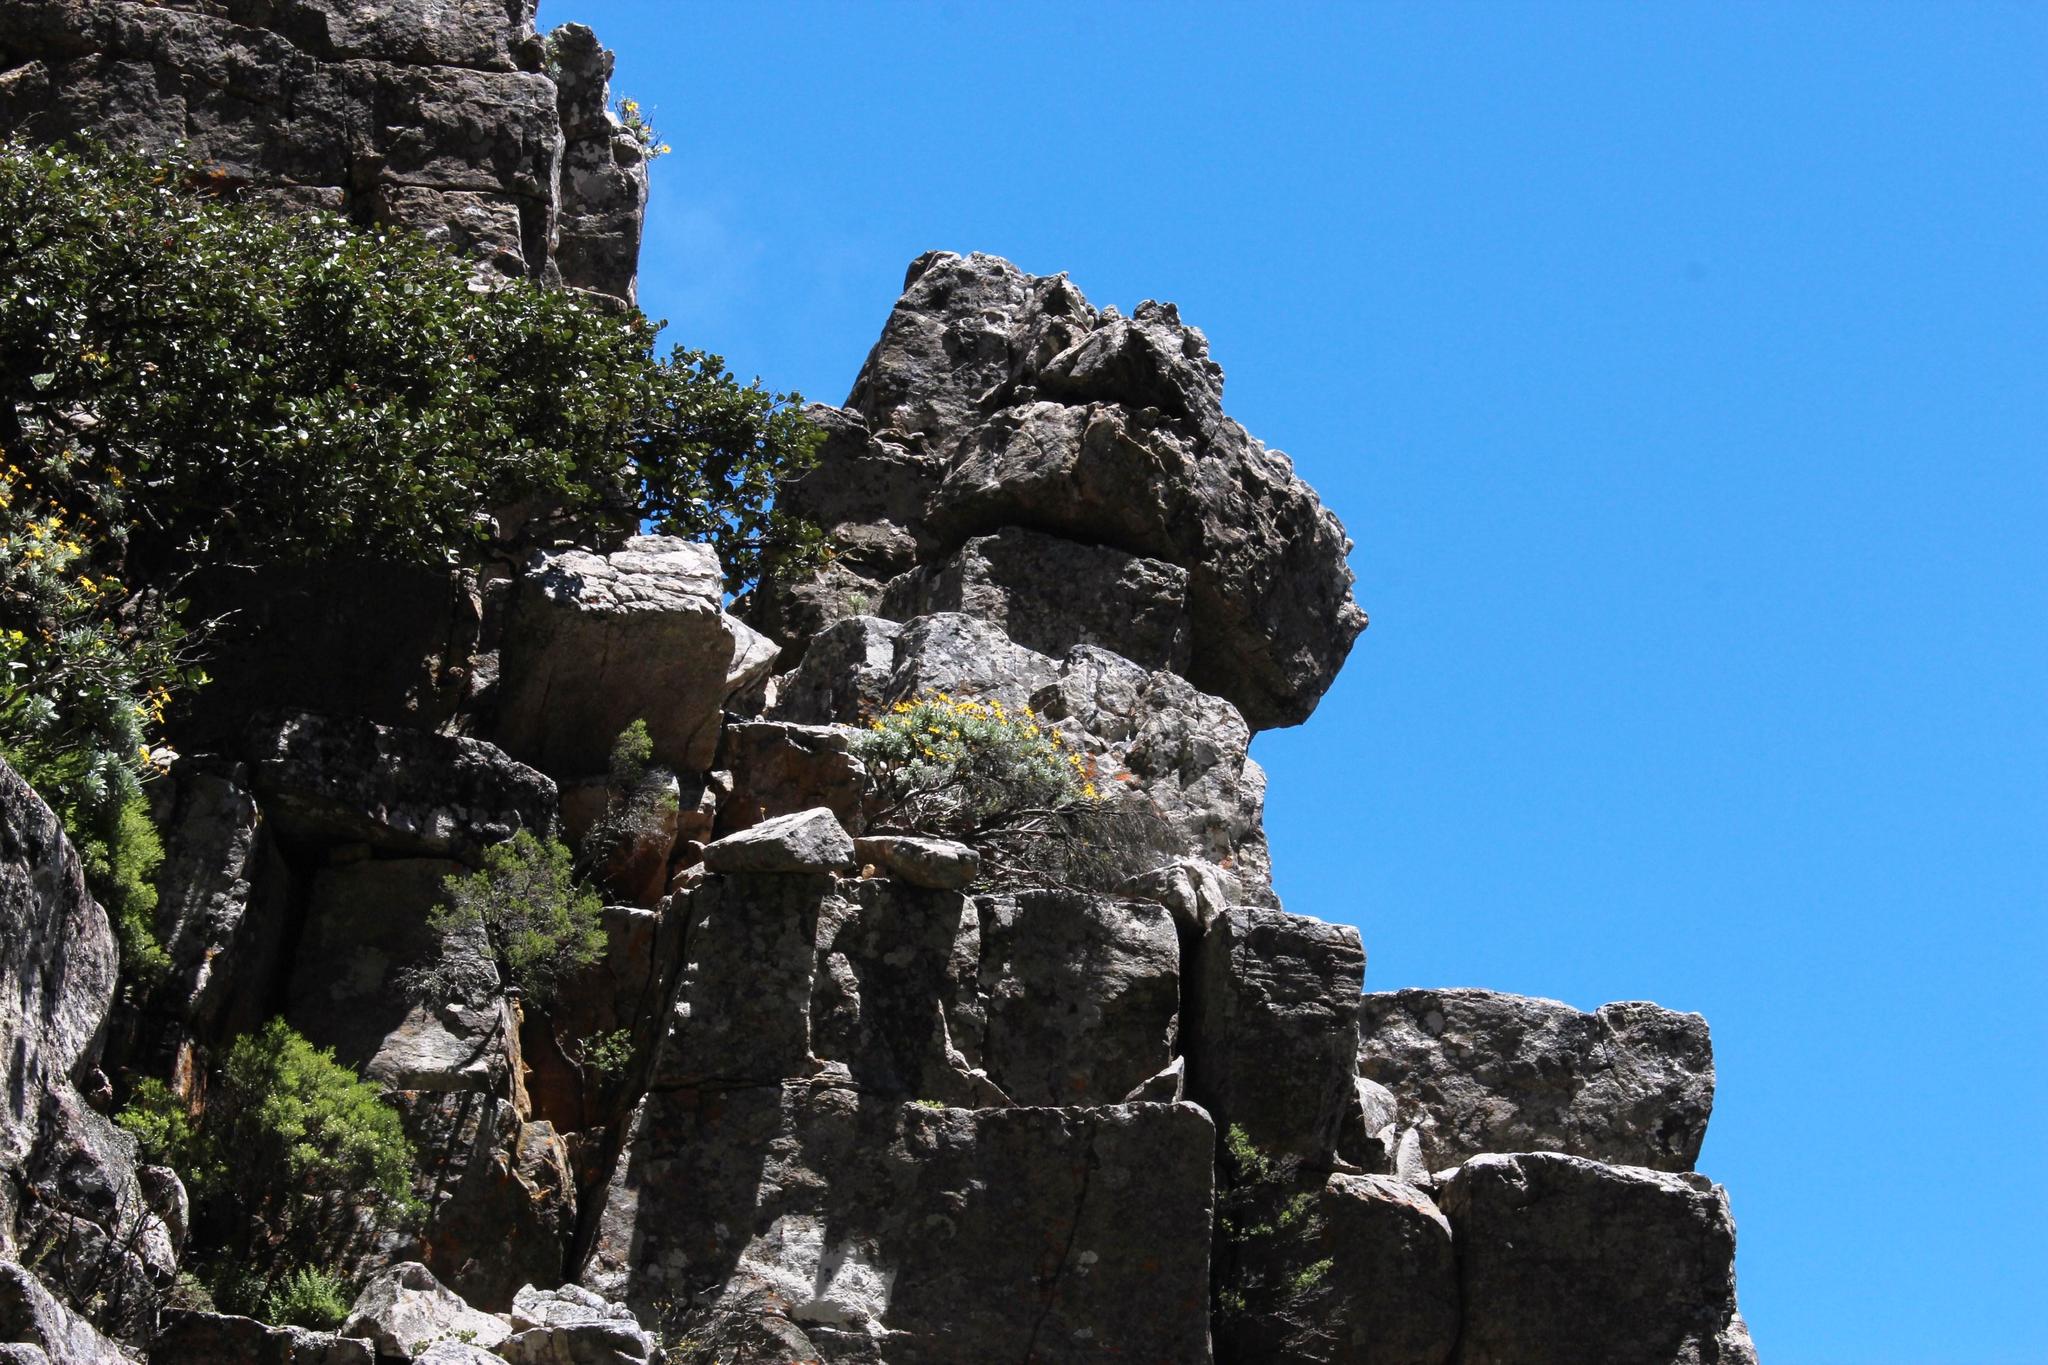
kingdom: Plantae
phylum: Tracheophyta
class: Magnoliopsida
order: Asterales
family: Asteraceae
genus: Euryops
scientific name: Euryops pectinatus
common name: Gray-leaf euryops
